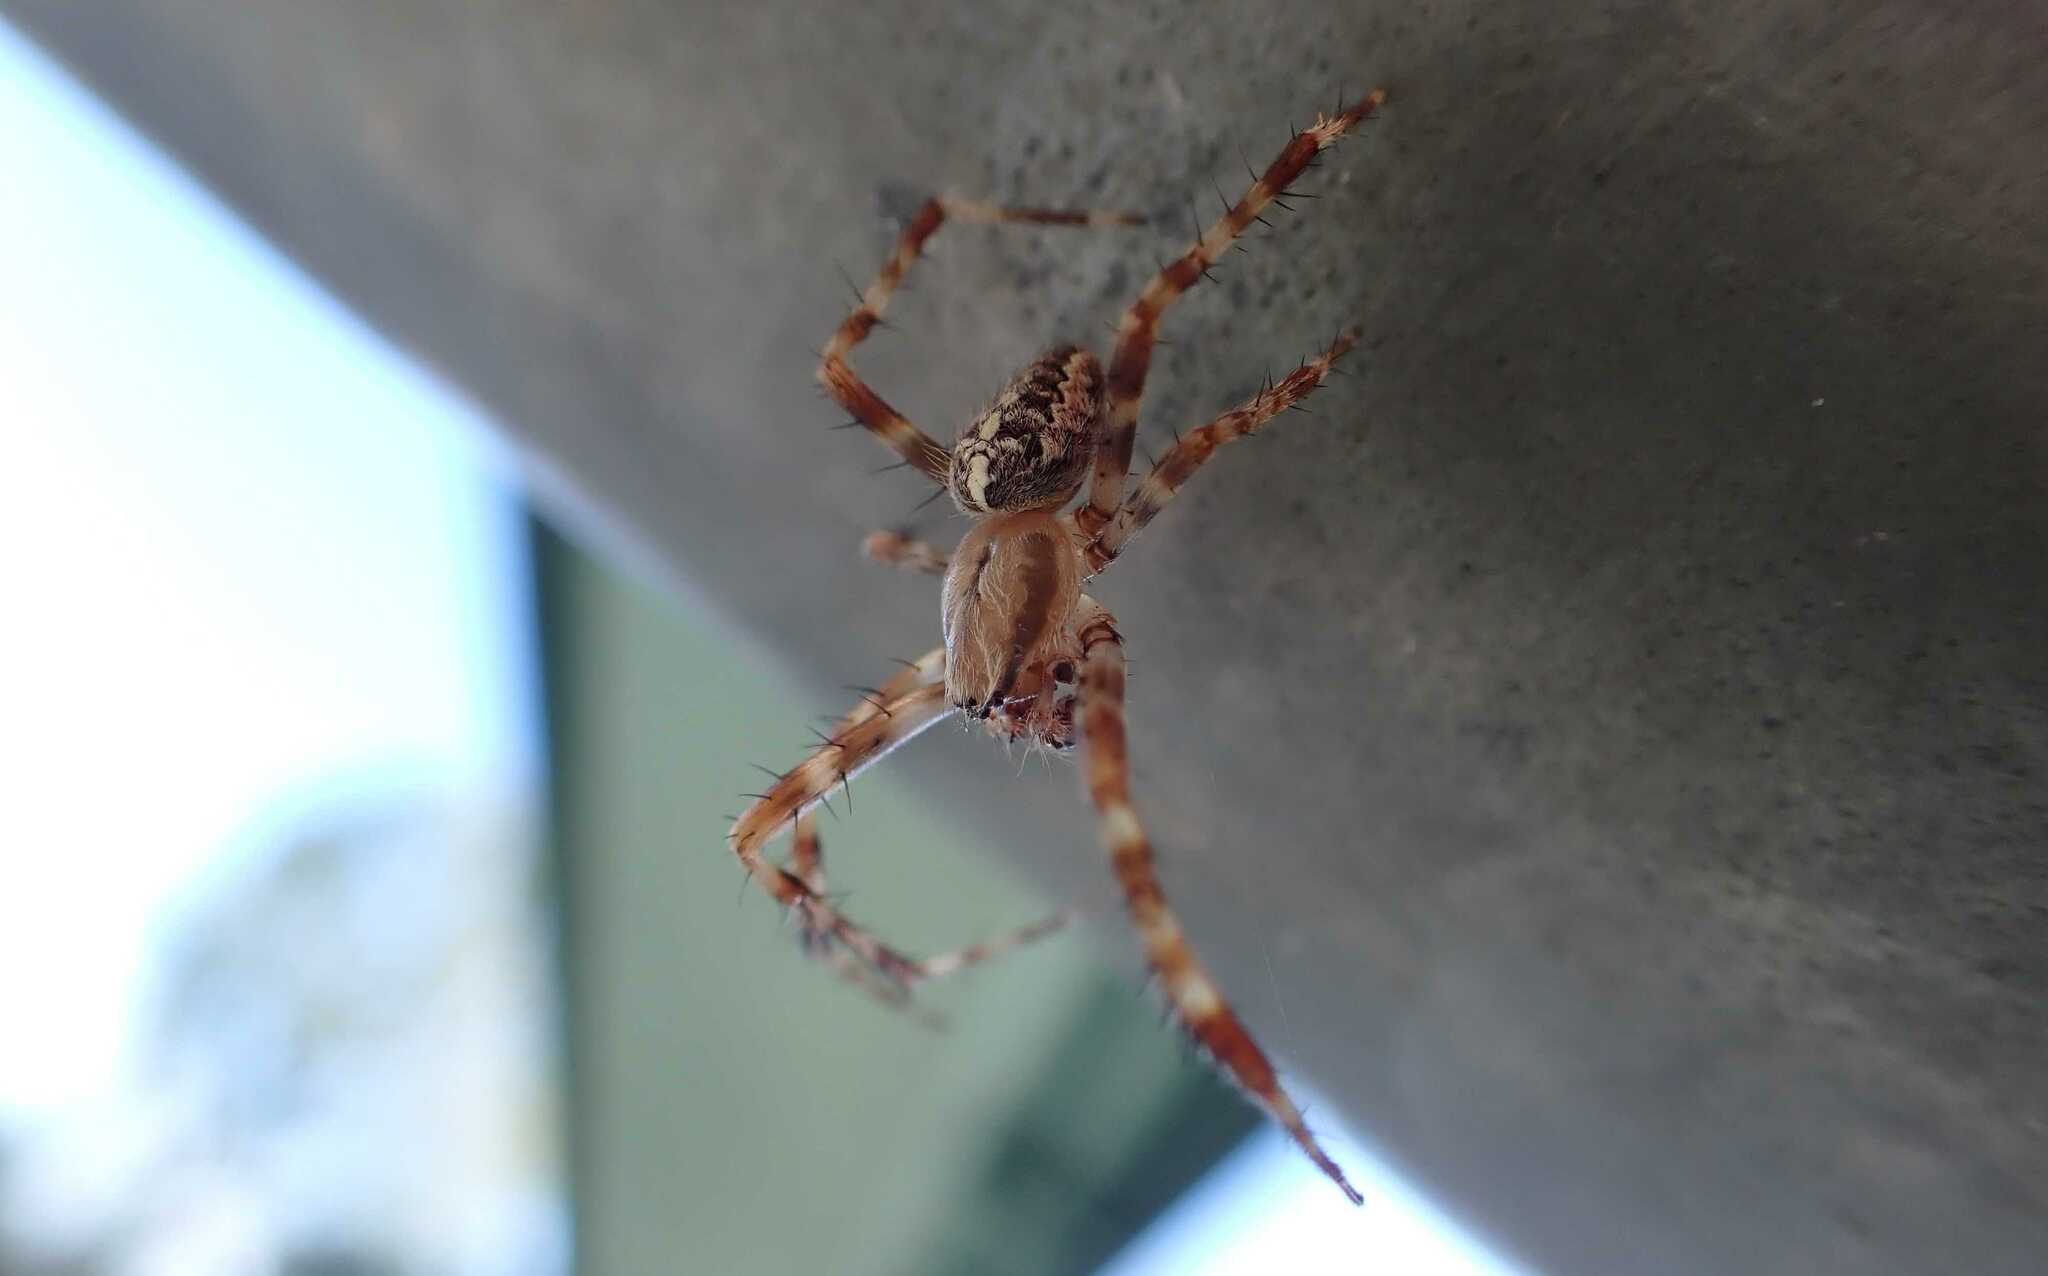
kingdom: Animalia
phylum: Arthropoda
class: Arachnida
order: Araneae
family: Araneidae
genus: Araneus
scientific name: Araneus diadematus
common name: Cross orbweaver
